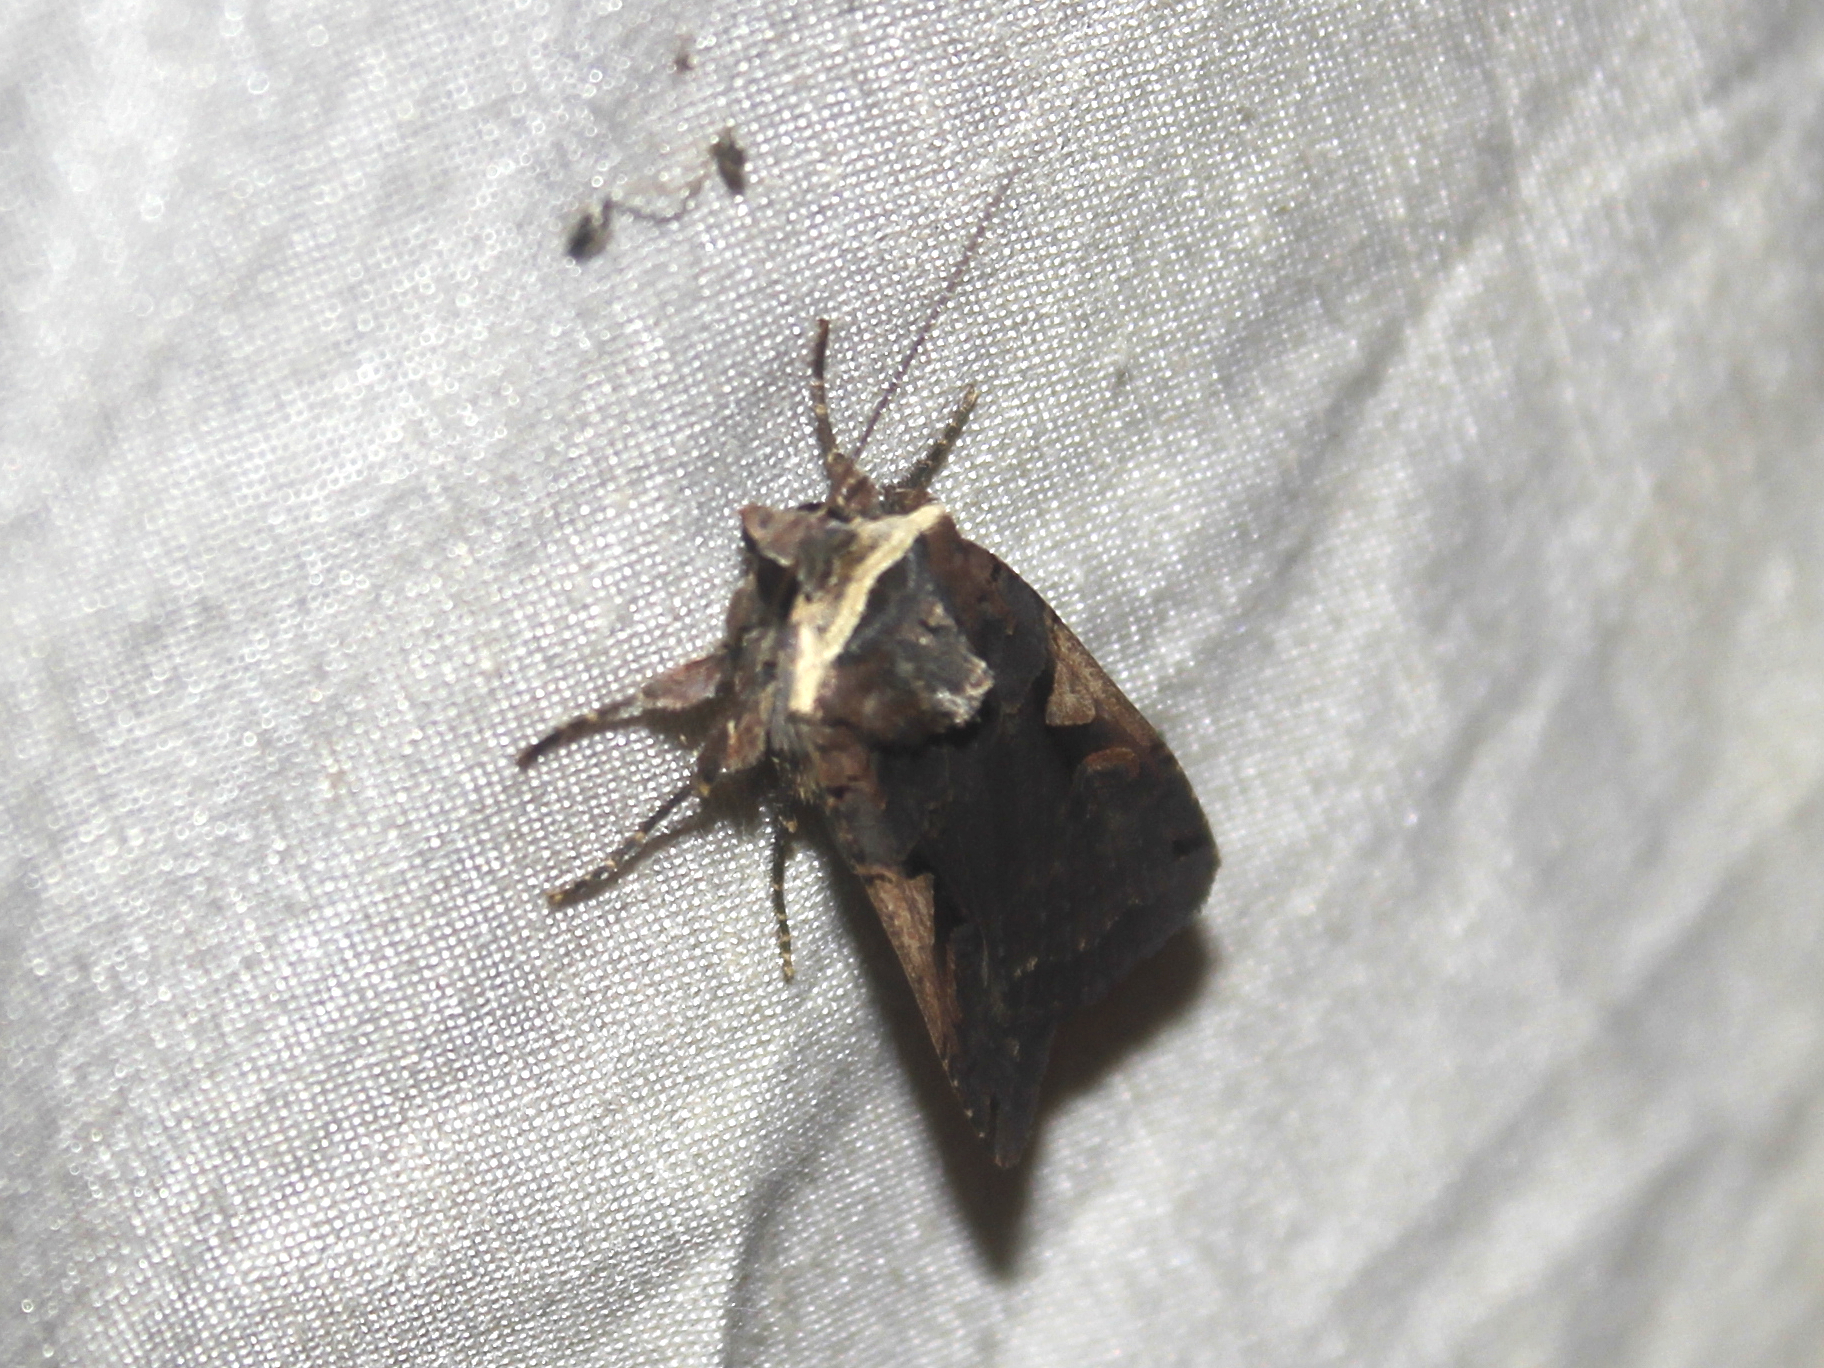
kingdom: Animalia
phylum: Arthropoda
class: Insecta
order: Lepidoptera
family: Noctuidae
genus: Xestia
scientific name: Xestia dolosa
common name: Cutworm moth
